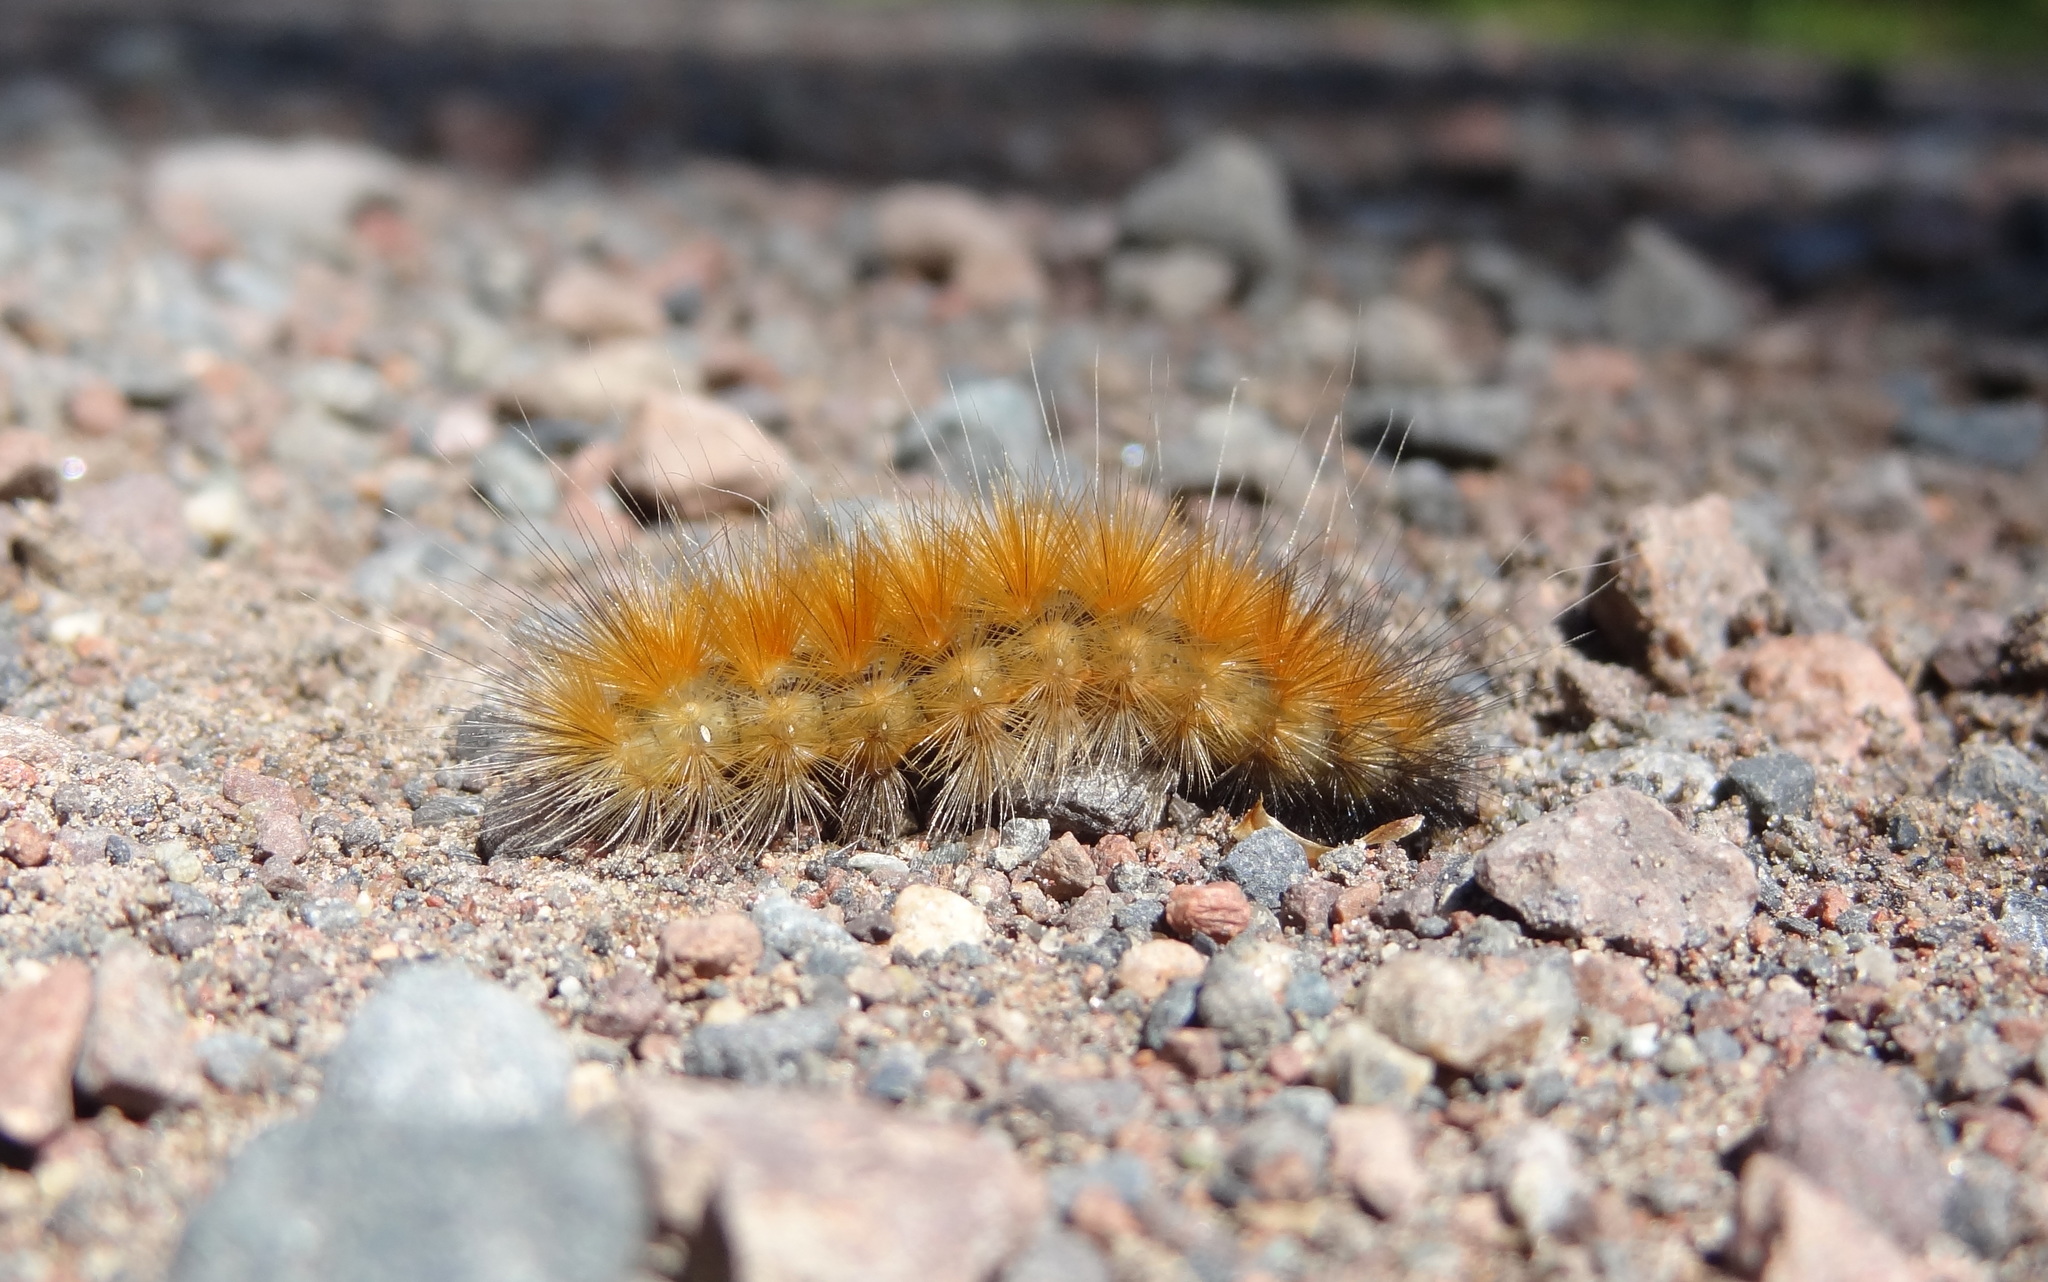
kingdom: Animalia
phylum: Arthropoda
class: Insecta
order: Lepidoptera
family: Erebidae
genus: Spilosoma
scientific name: Spilosoma virginica
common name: Virginia tiger moth
